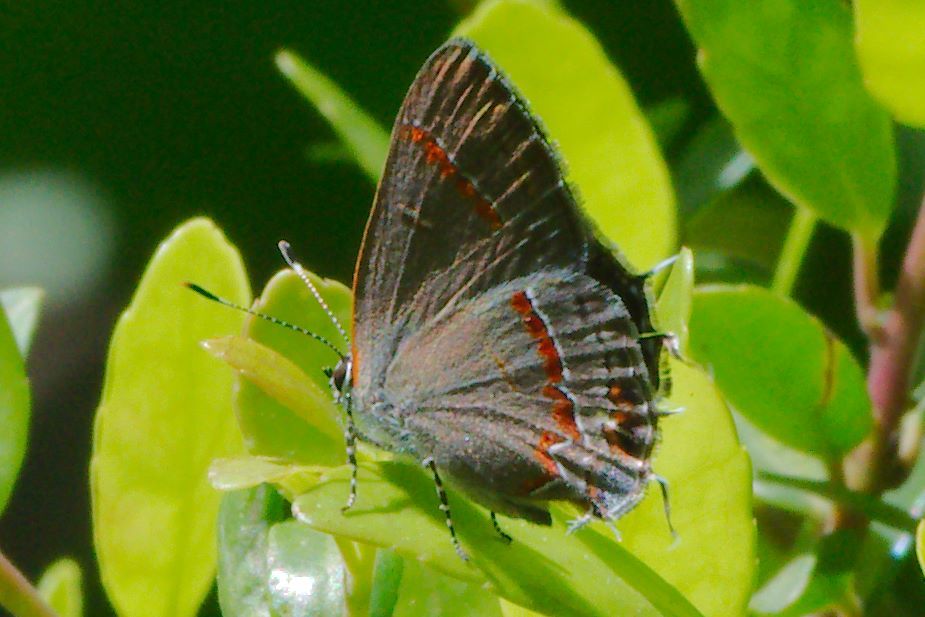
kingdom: Animalia
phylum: Arthropoda
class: Insecta
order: Lepidoptera
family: Lycaenidae
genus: Calycopis
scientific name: Calycopis cecrops
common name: Red-banded hairstreak
